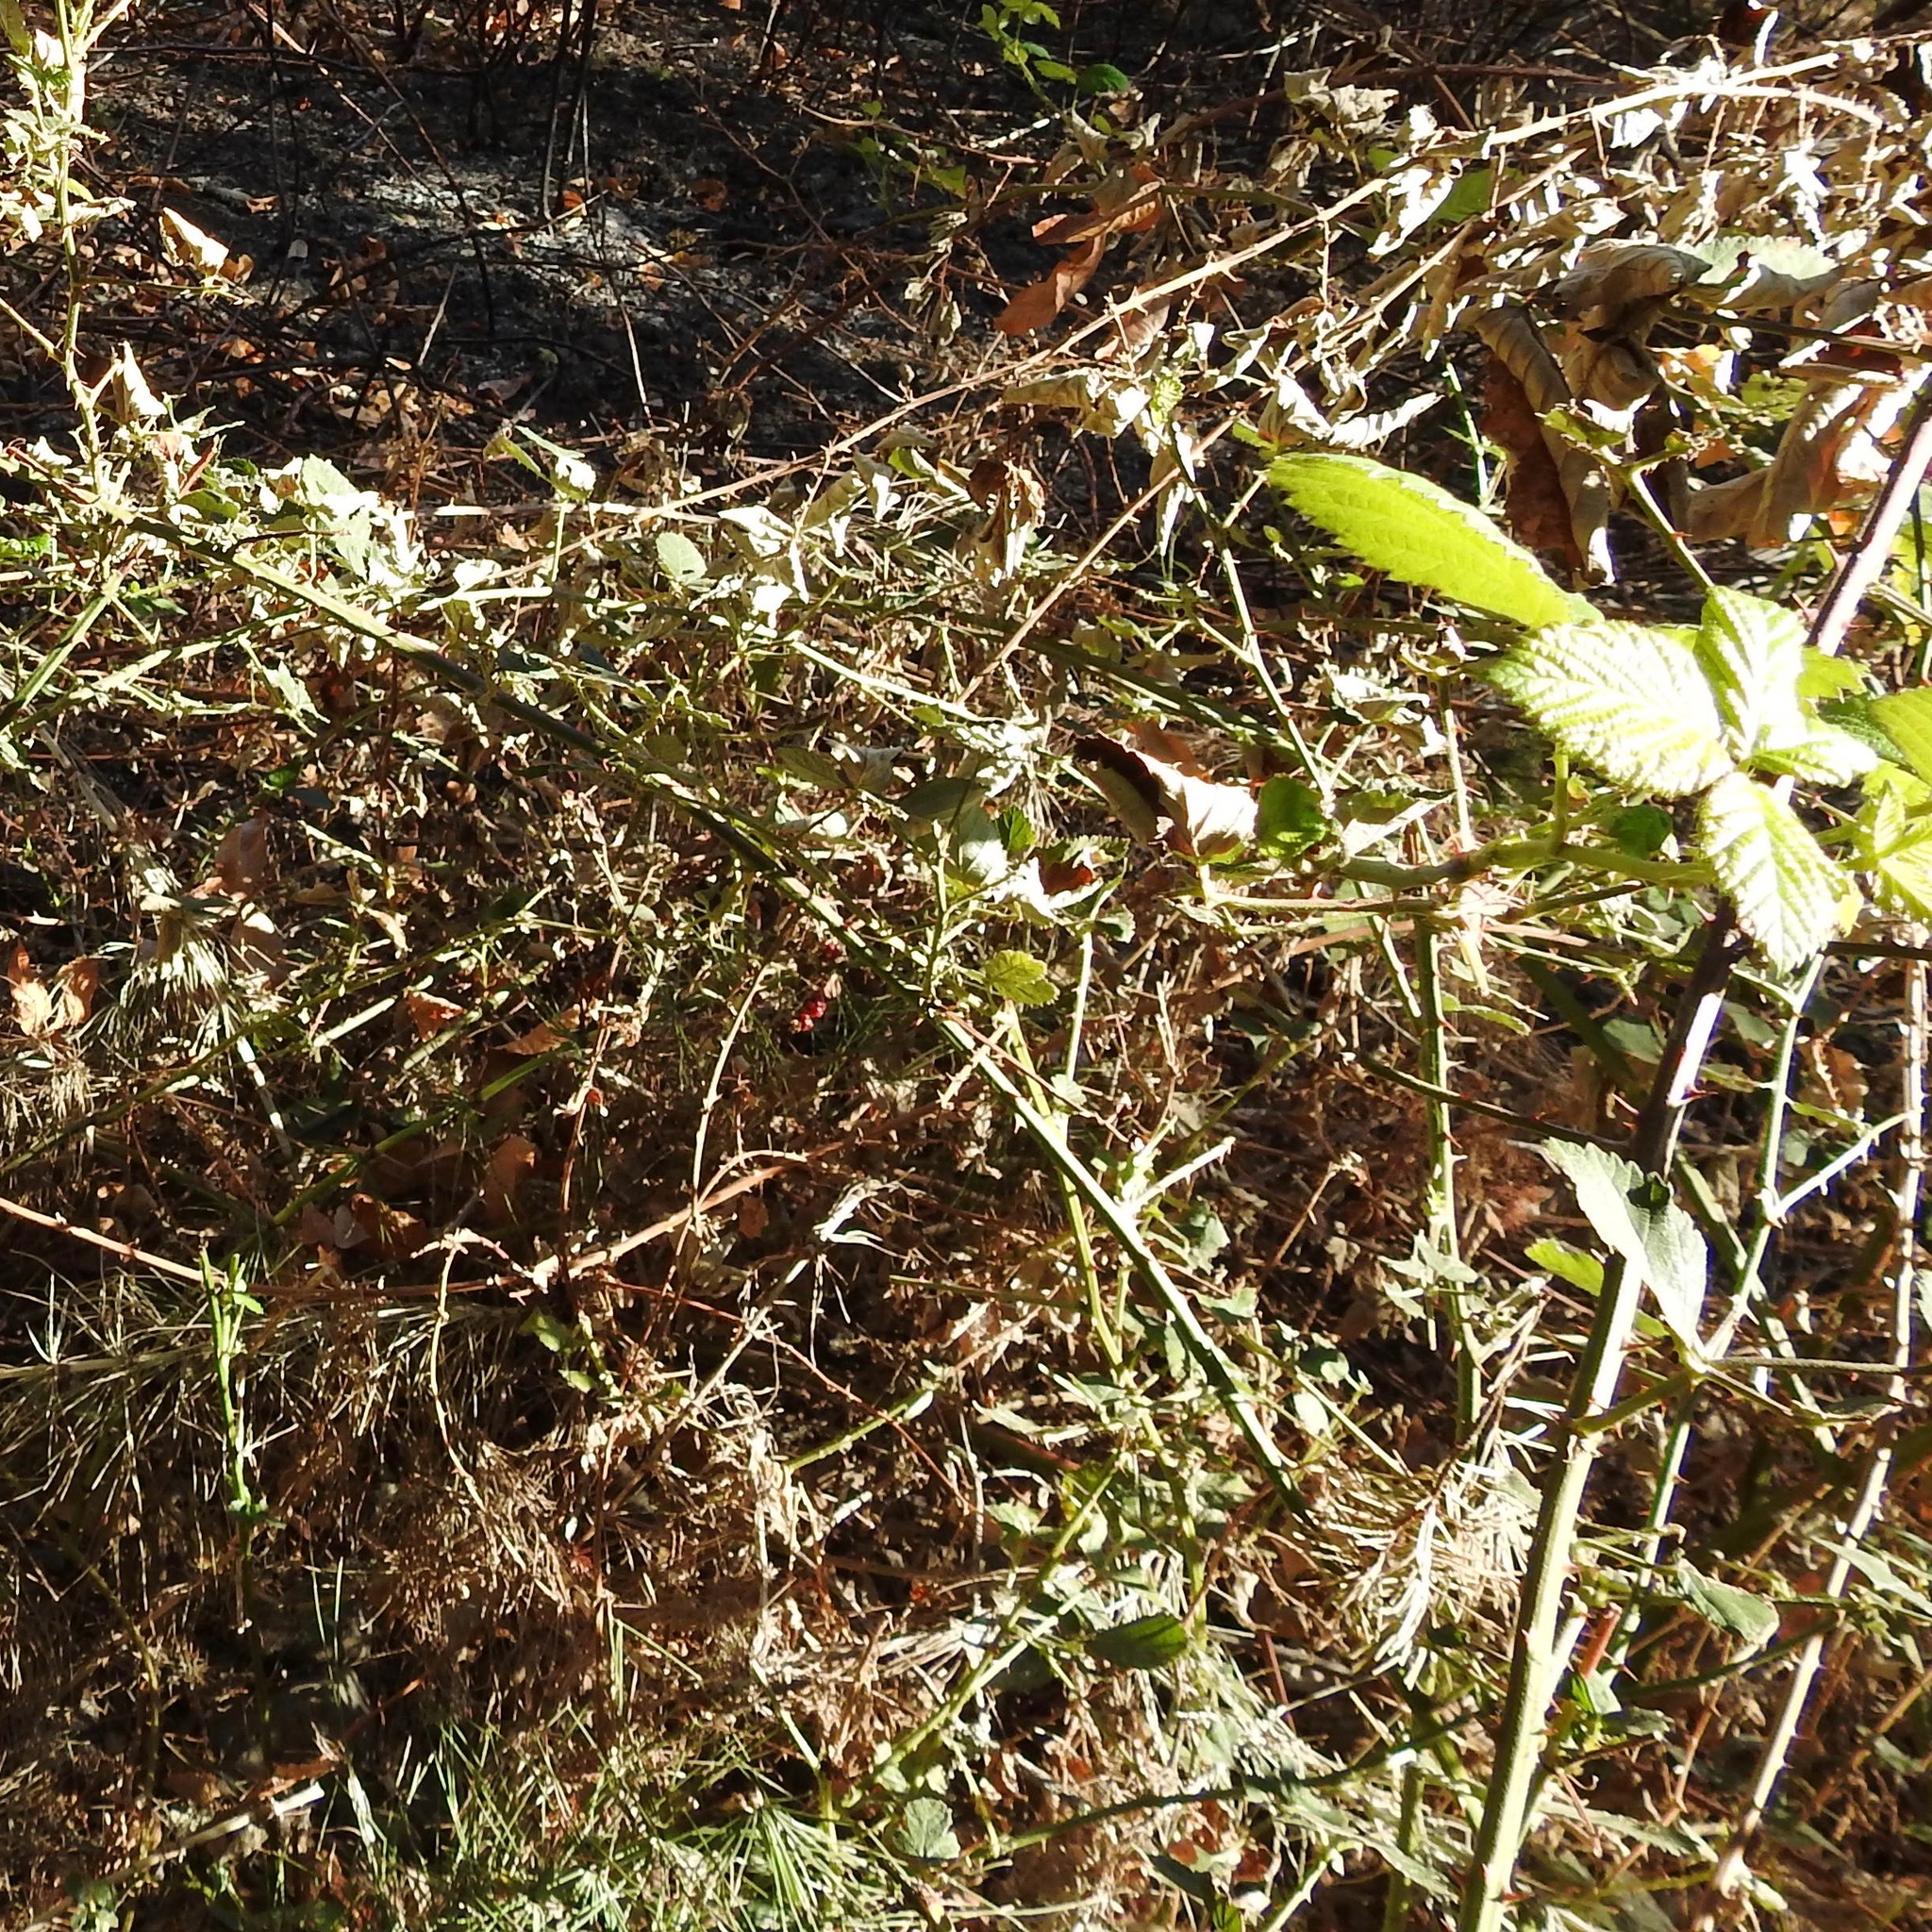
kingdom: Plantae
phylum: Tracheophyta
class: Magnoliopsida
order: Rosales
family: Rosaceae
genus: Rubus
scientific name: Rubus armeniacus
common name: Himalayan blackberry
